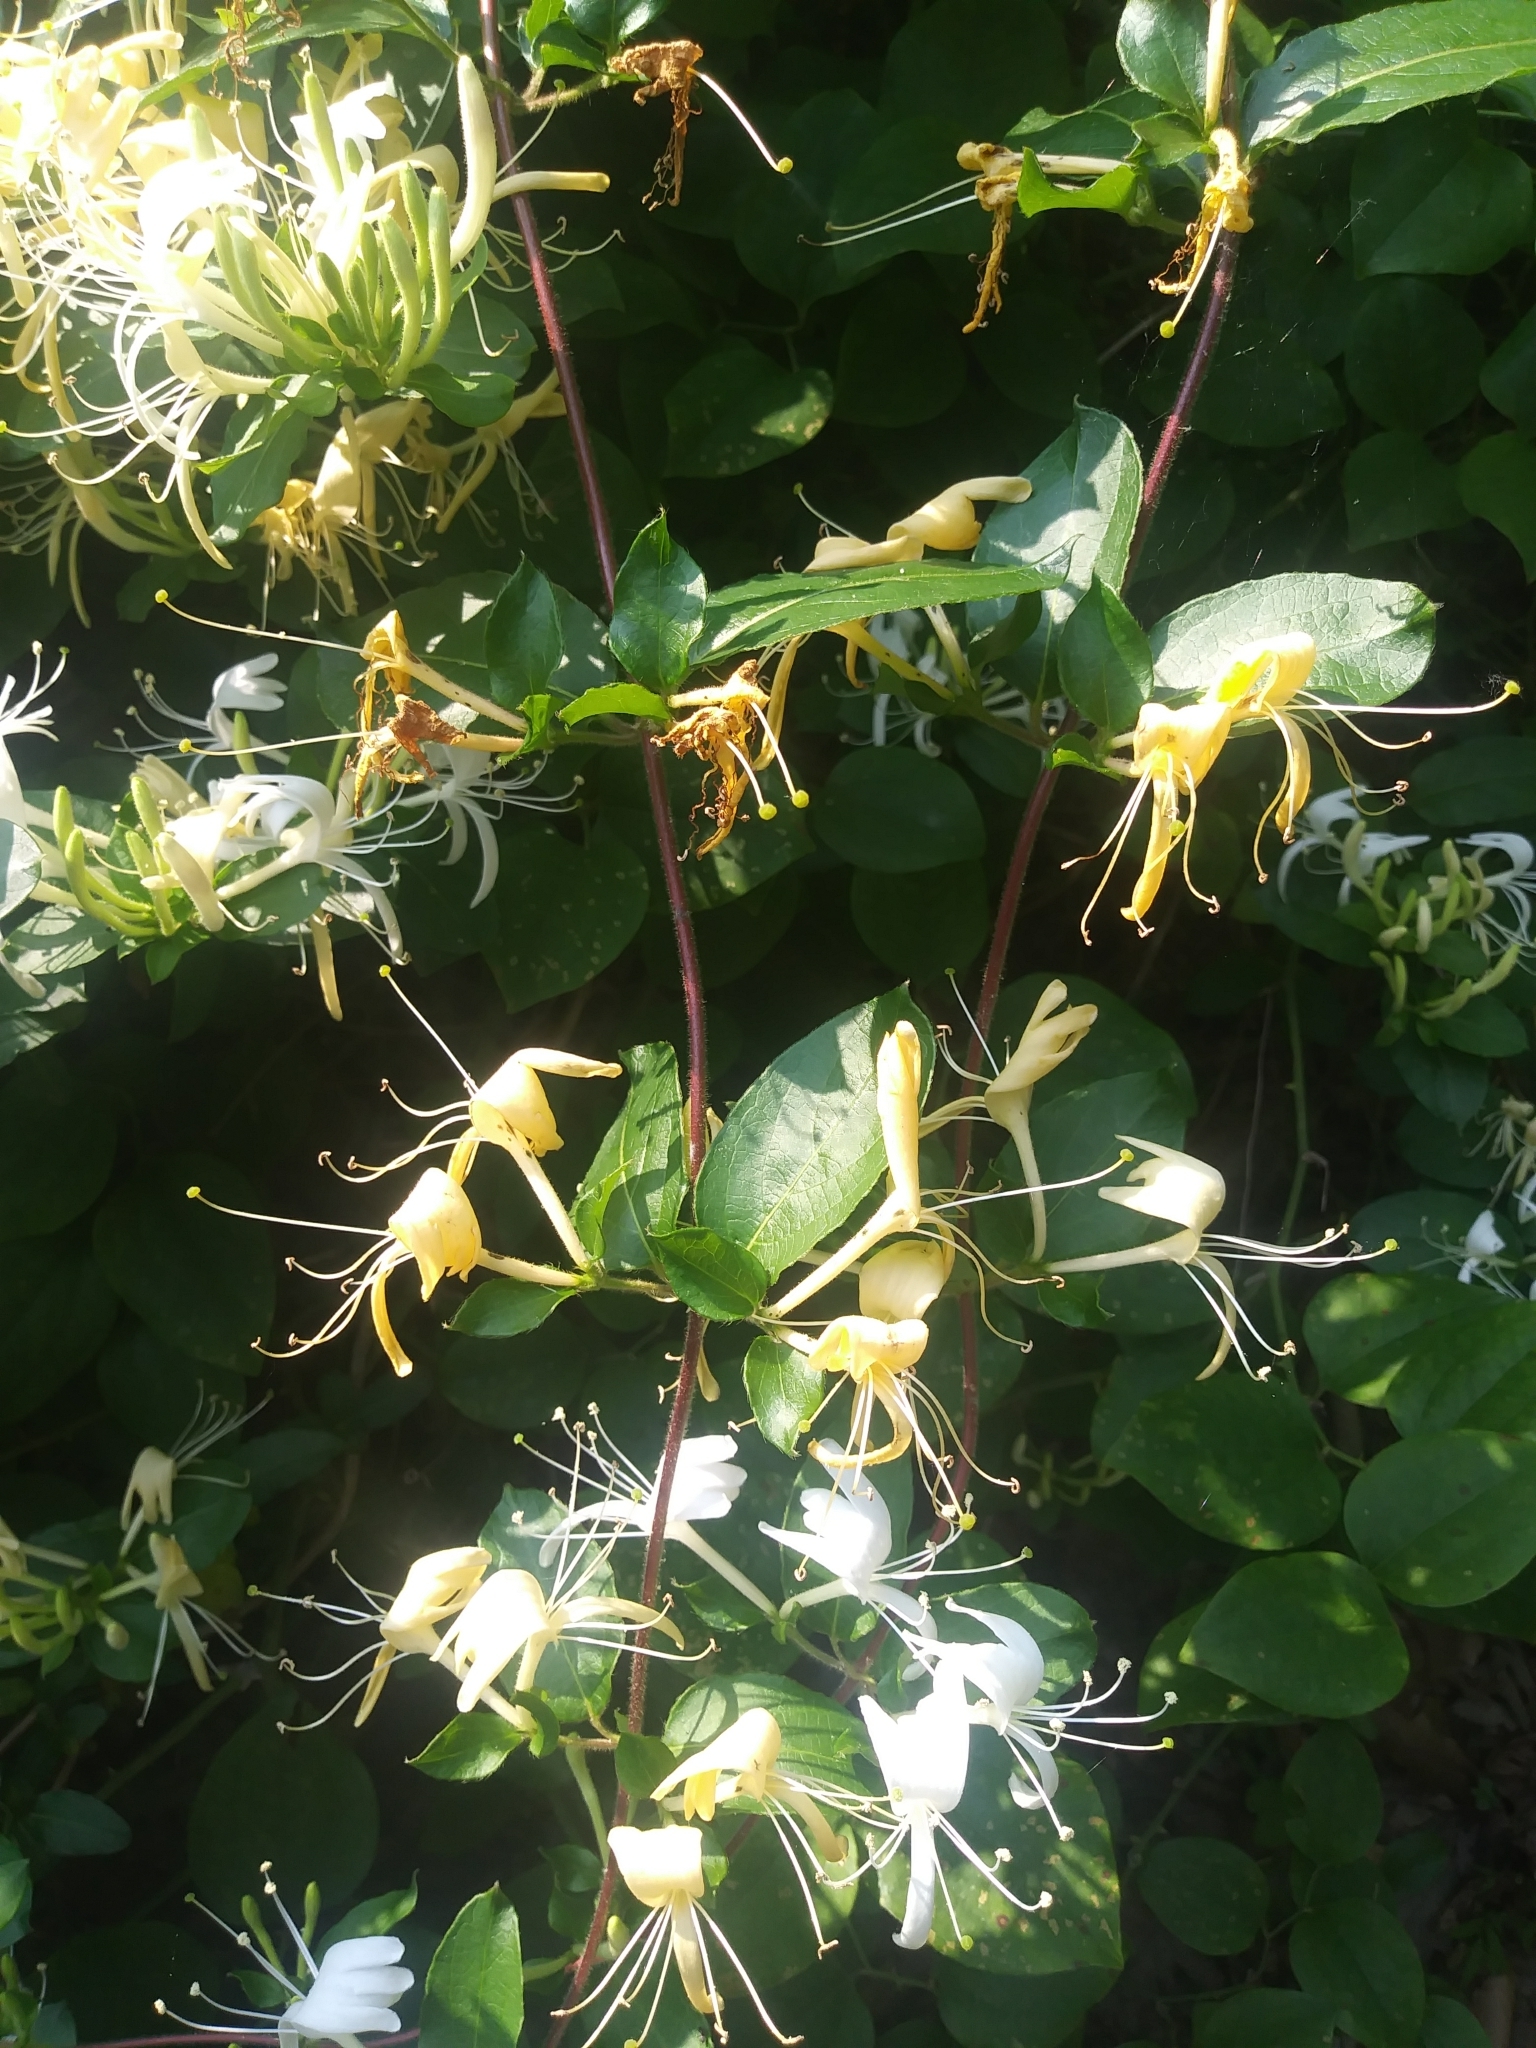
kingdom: Plantae
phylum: Tracheophyta
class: Magnoliopsida
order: Dipsacales
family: Caprifoliaceae
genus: Lonicera
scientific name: Lonicera japonica
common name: Japanese honeysuckle
